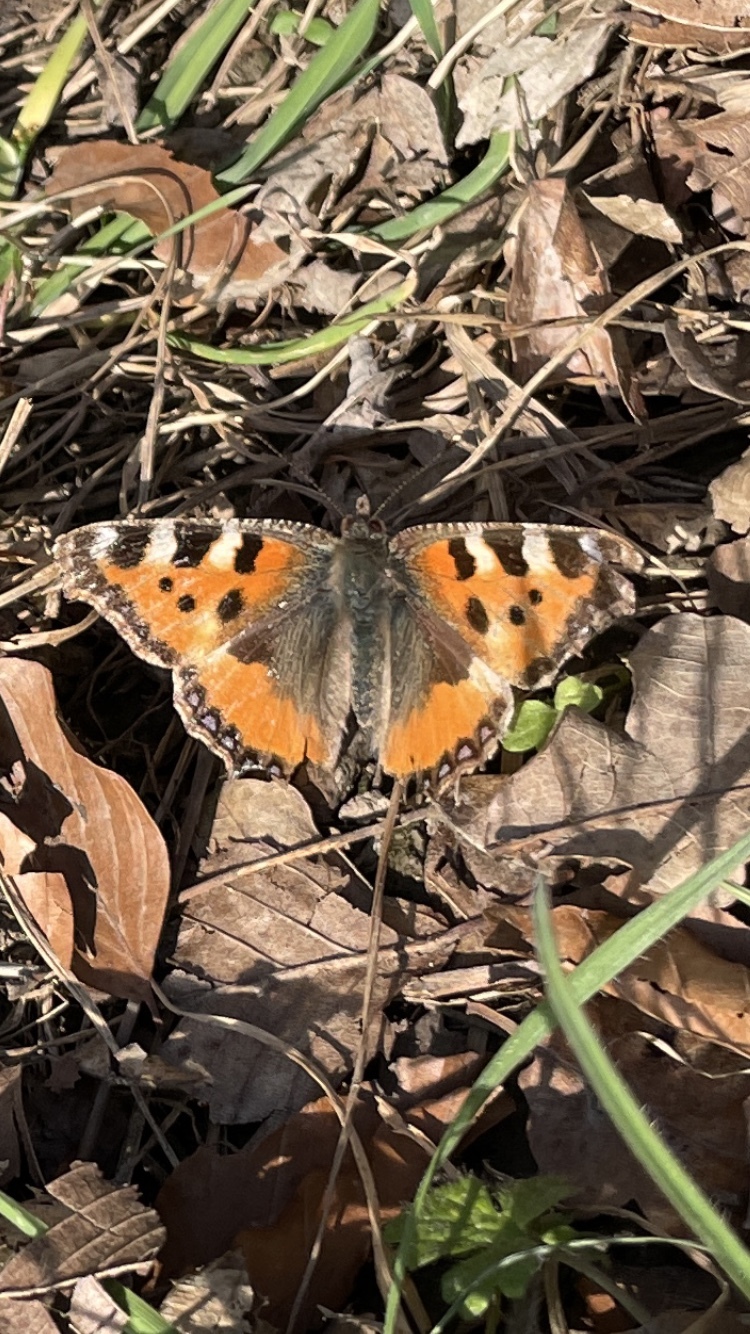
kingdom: Animalia
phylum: Arthropoda
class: Insecta
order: Lepidoptera
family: Nymphalidae
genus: Aglais
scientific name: Aglais urticae
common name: Small tortoiseshell
